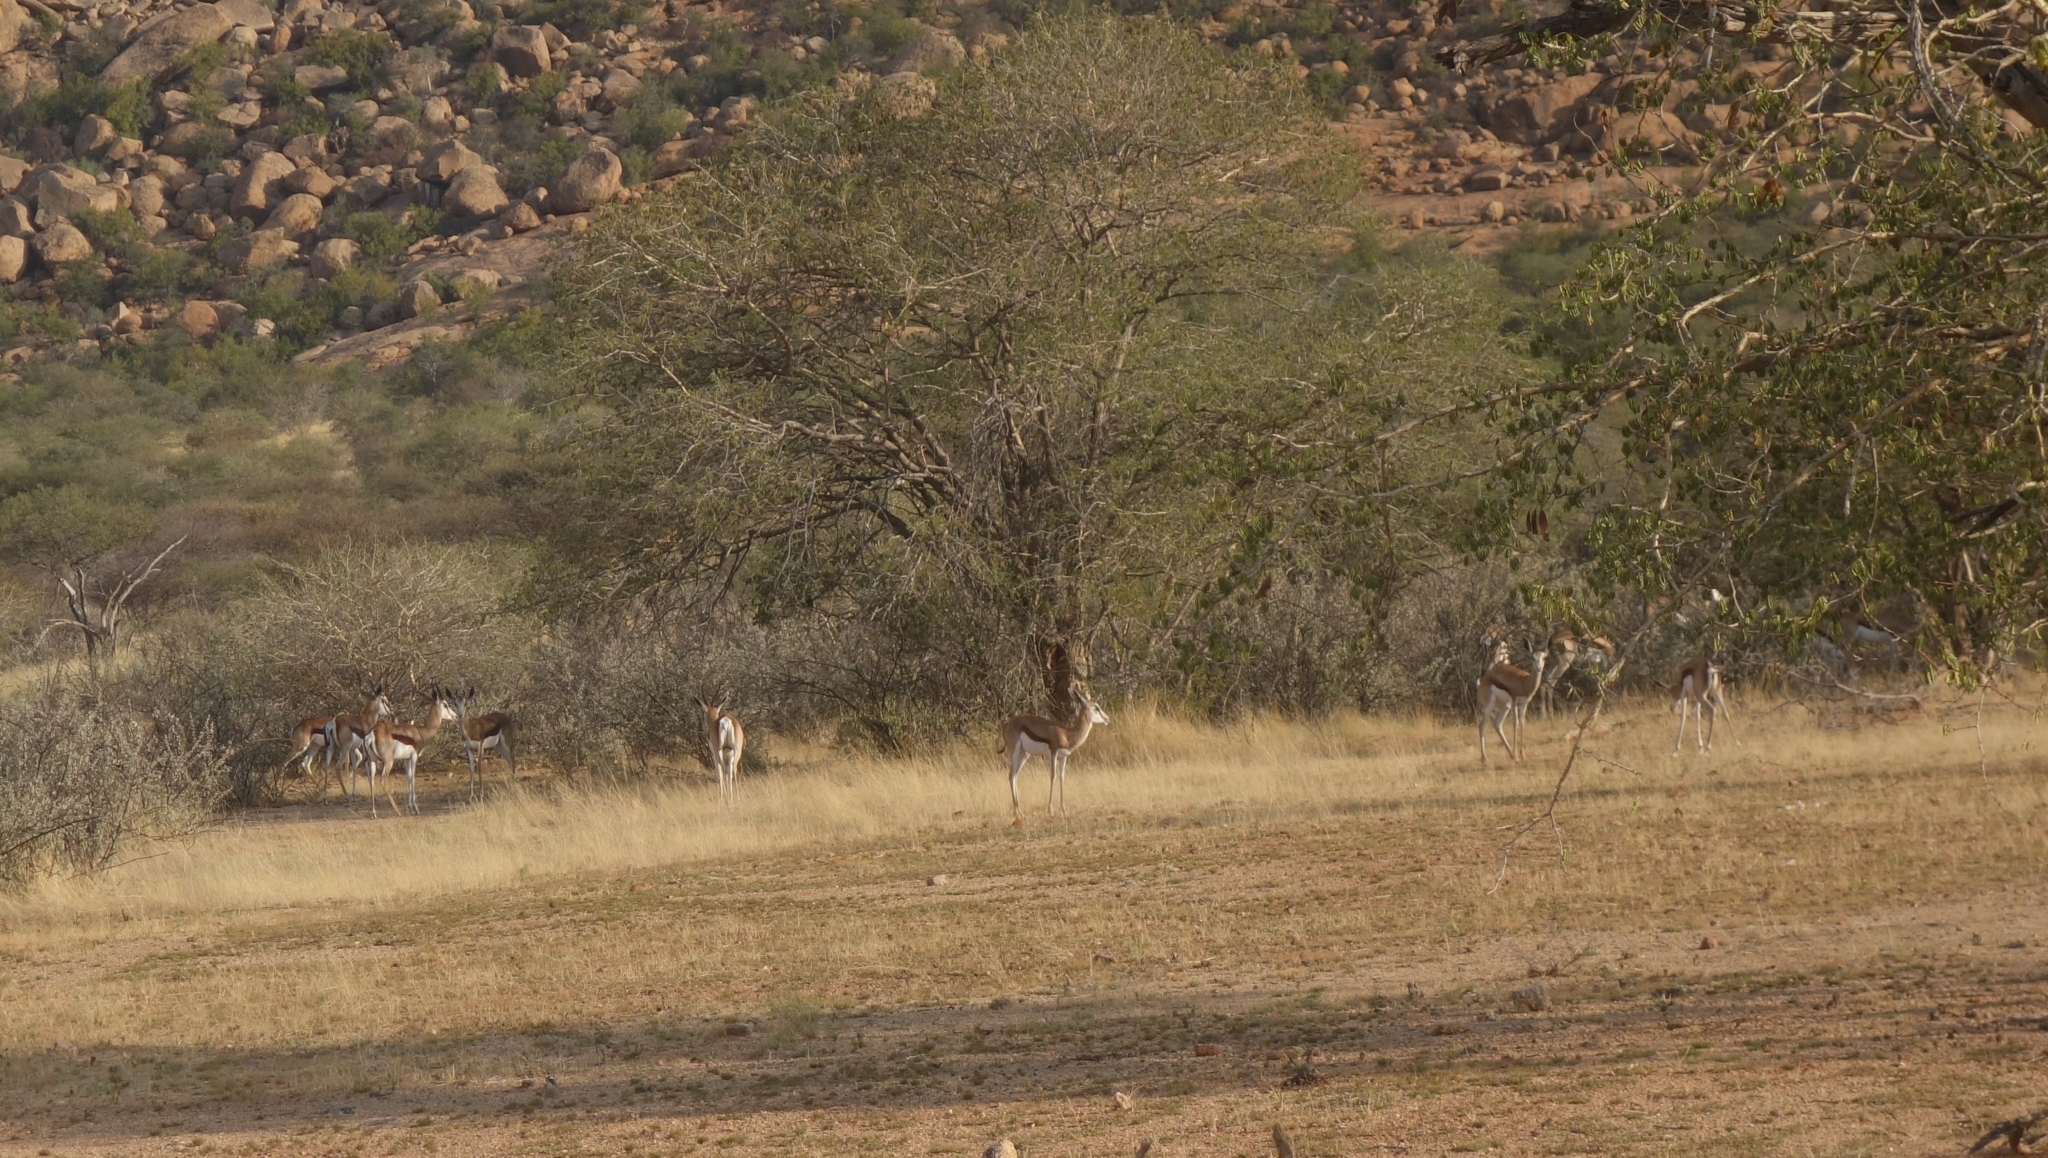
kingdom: Animalia
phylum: Chordata
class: Mammalia
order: Artiodactyla
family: Bovidae
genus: Antidorcas
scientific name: Antidorcas marsupialis
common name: Springbok
